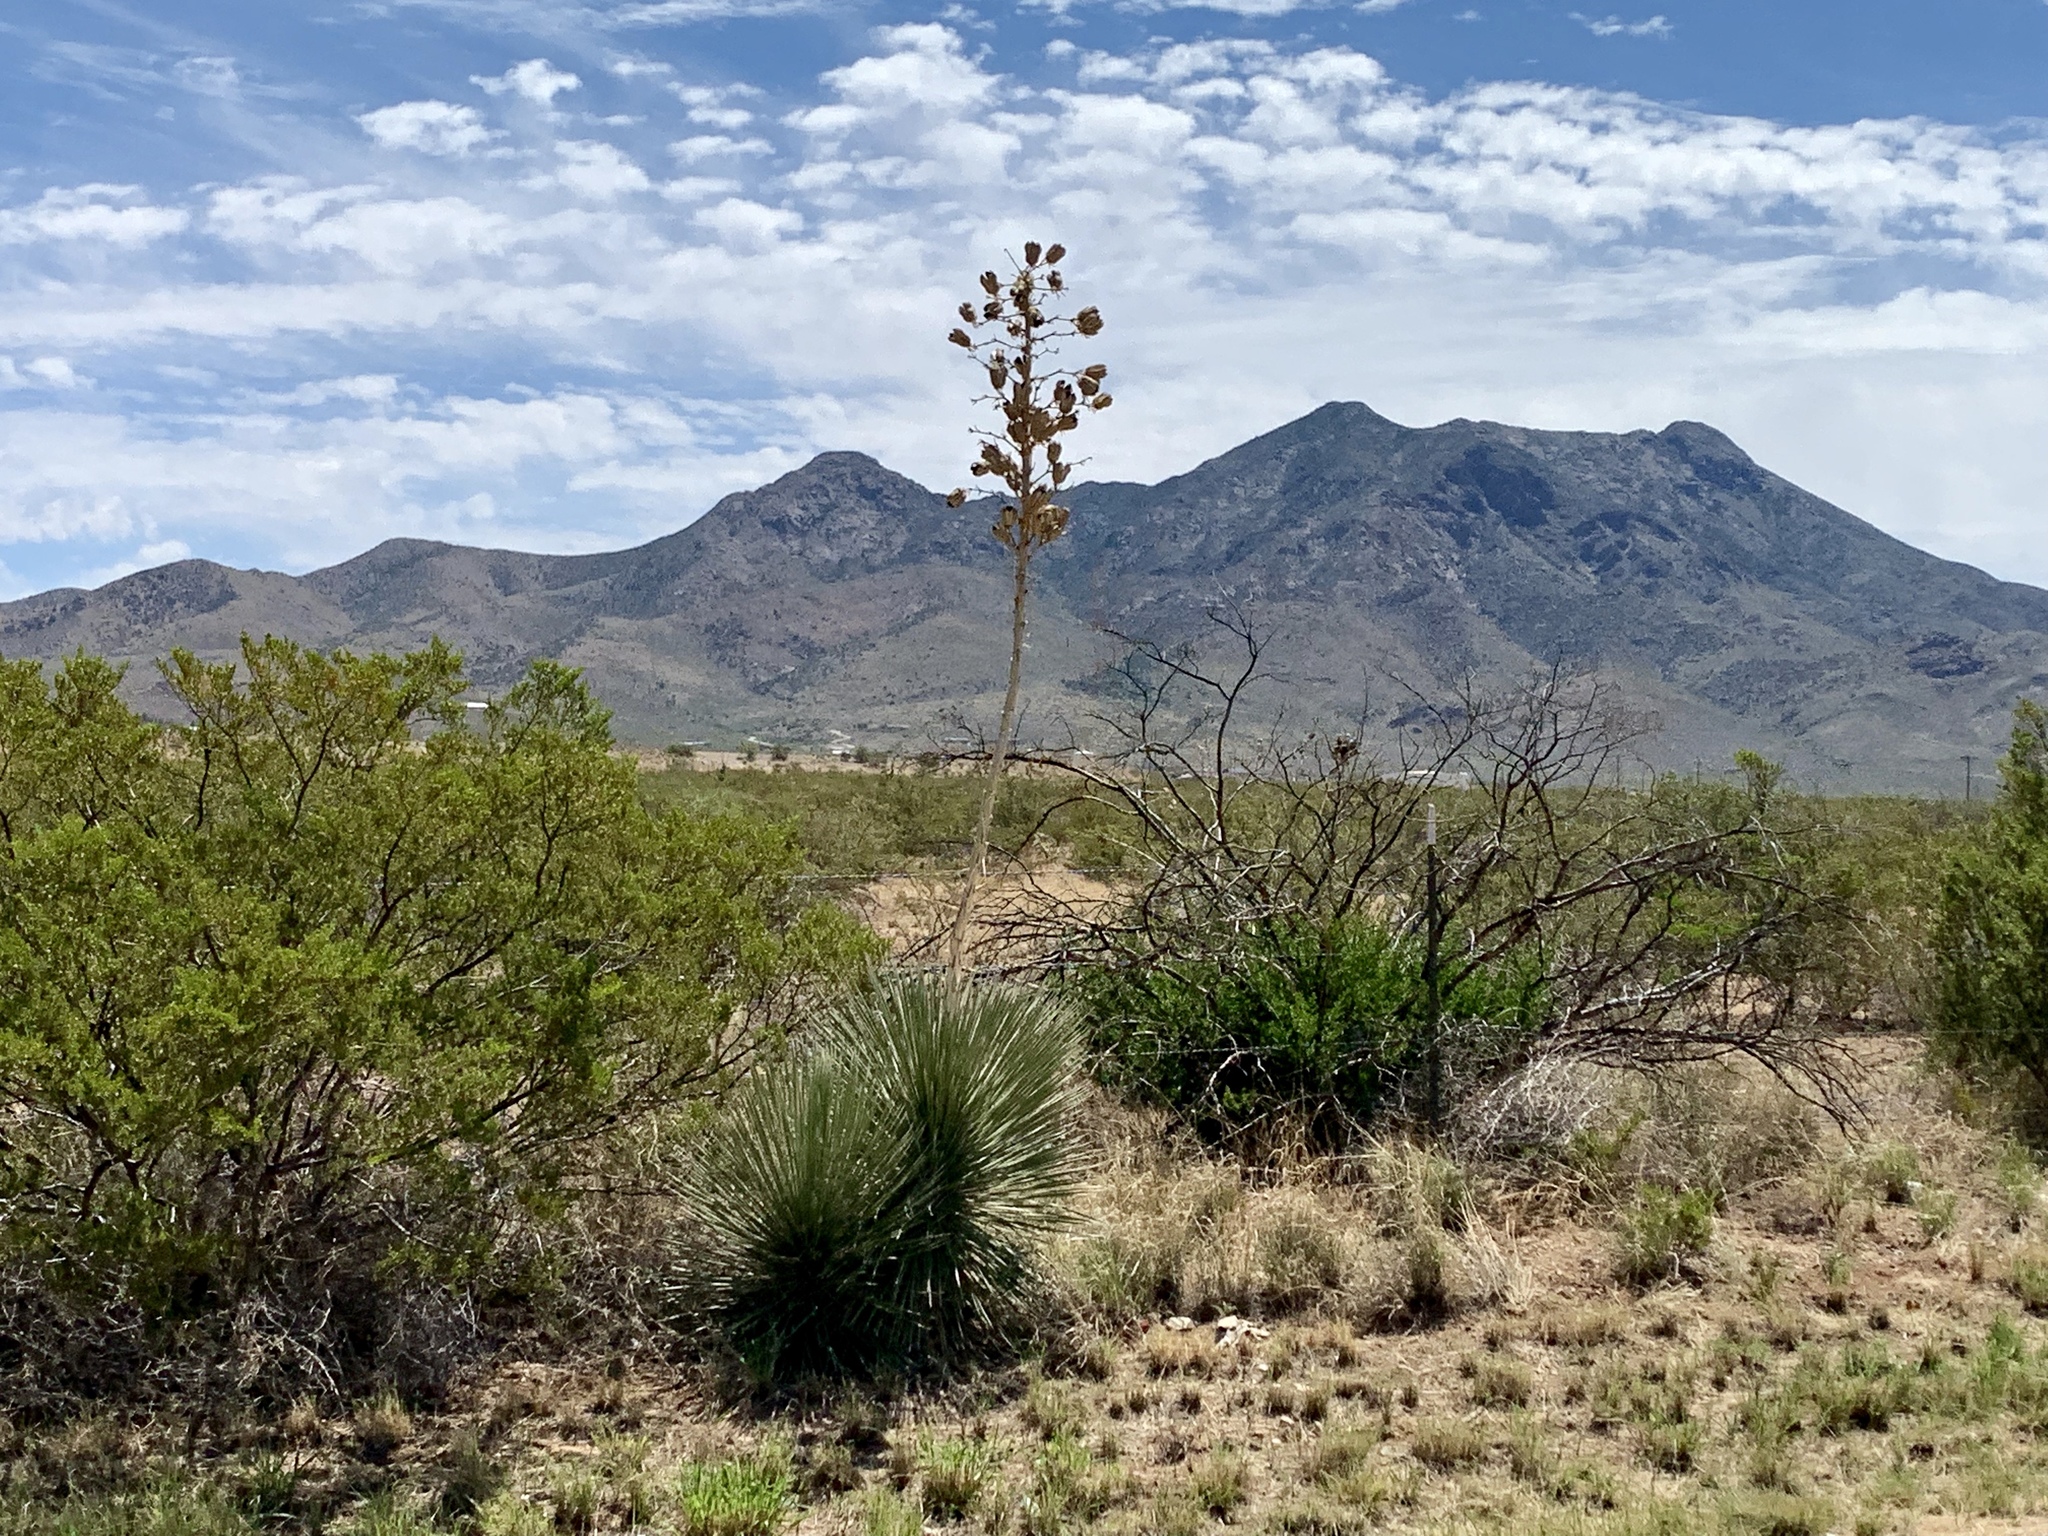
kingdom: Plantae
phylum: Tracheophyta
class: Liliopsida
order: Asparagales
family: Asparagaceae
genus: Yucca
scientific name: Yucca elata
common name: Palmella
